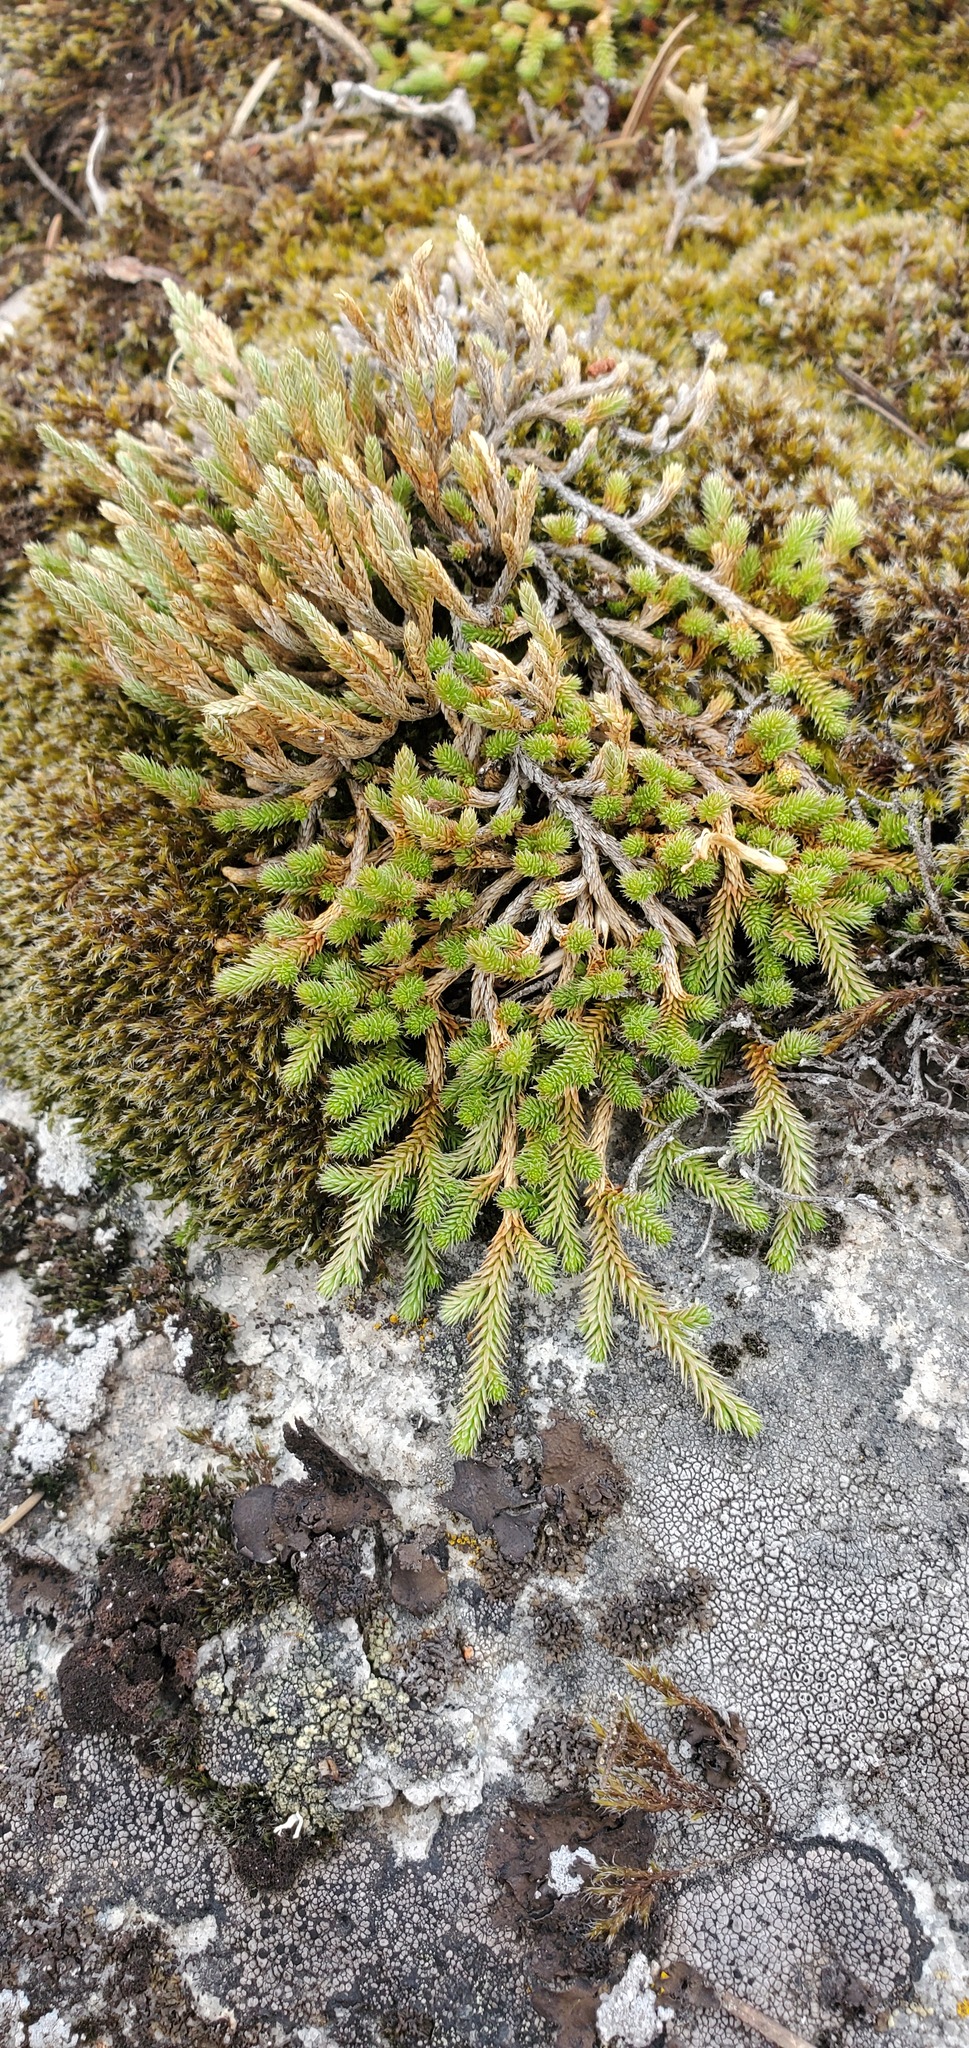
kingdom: Plantae
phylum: Tracheophyta
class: Lycopodiopsida
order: Selaginellales
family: Selaginellaceae
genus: Selaginella
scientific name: Selaginella wallacei
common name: Wallace's selaginella
